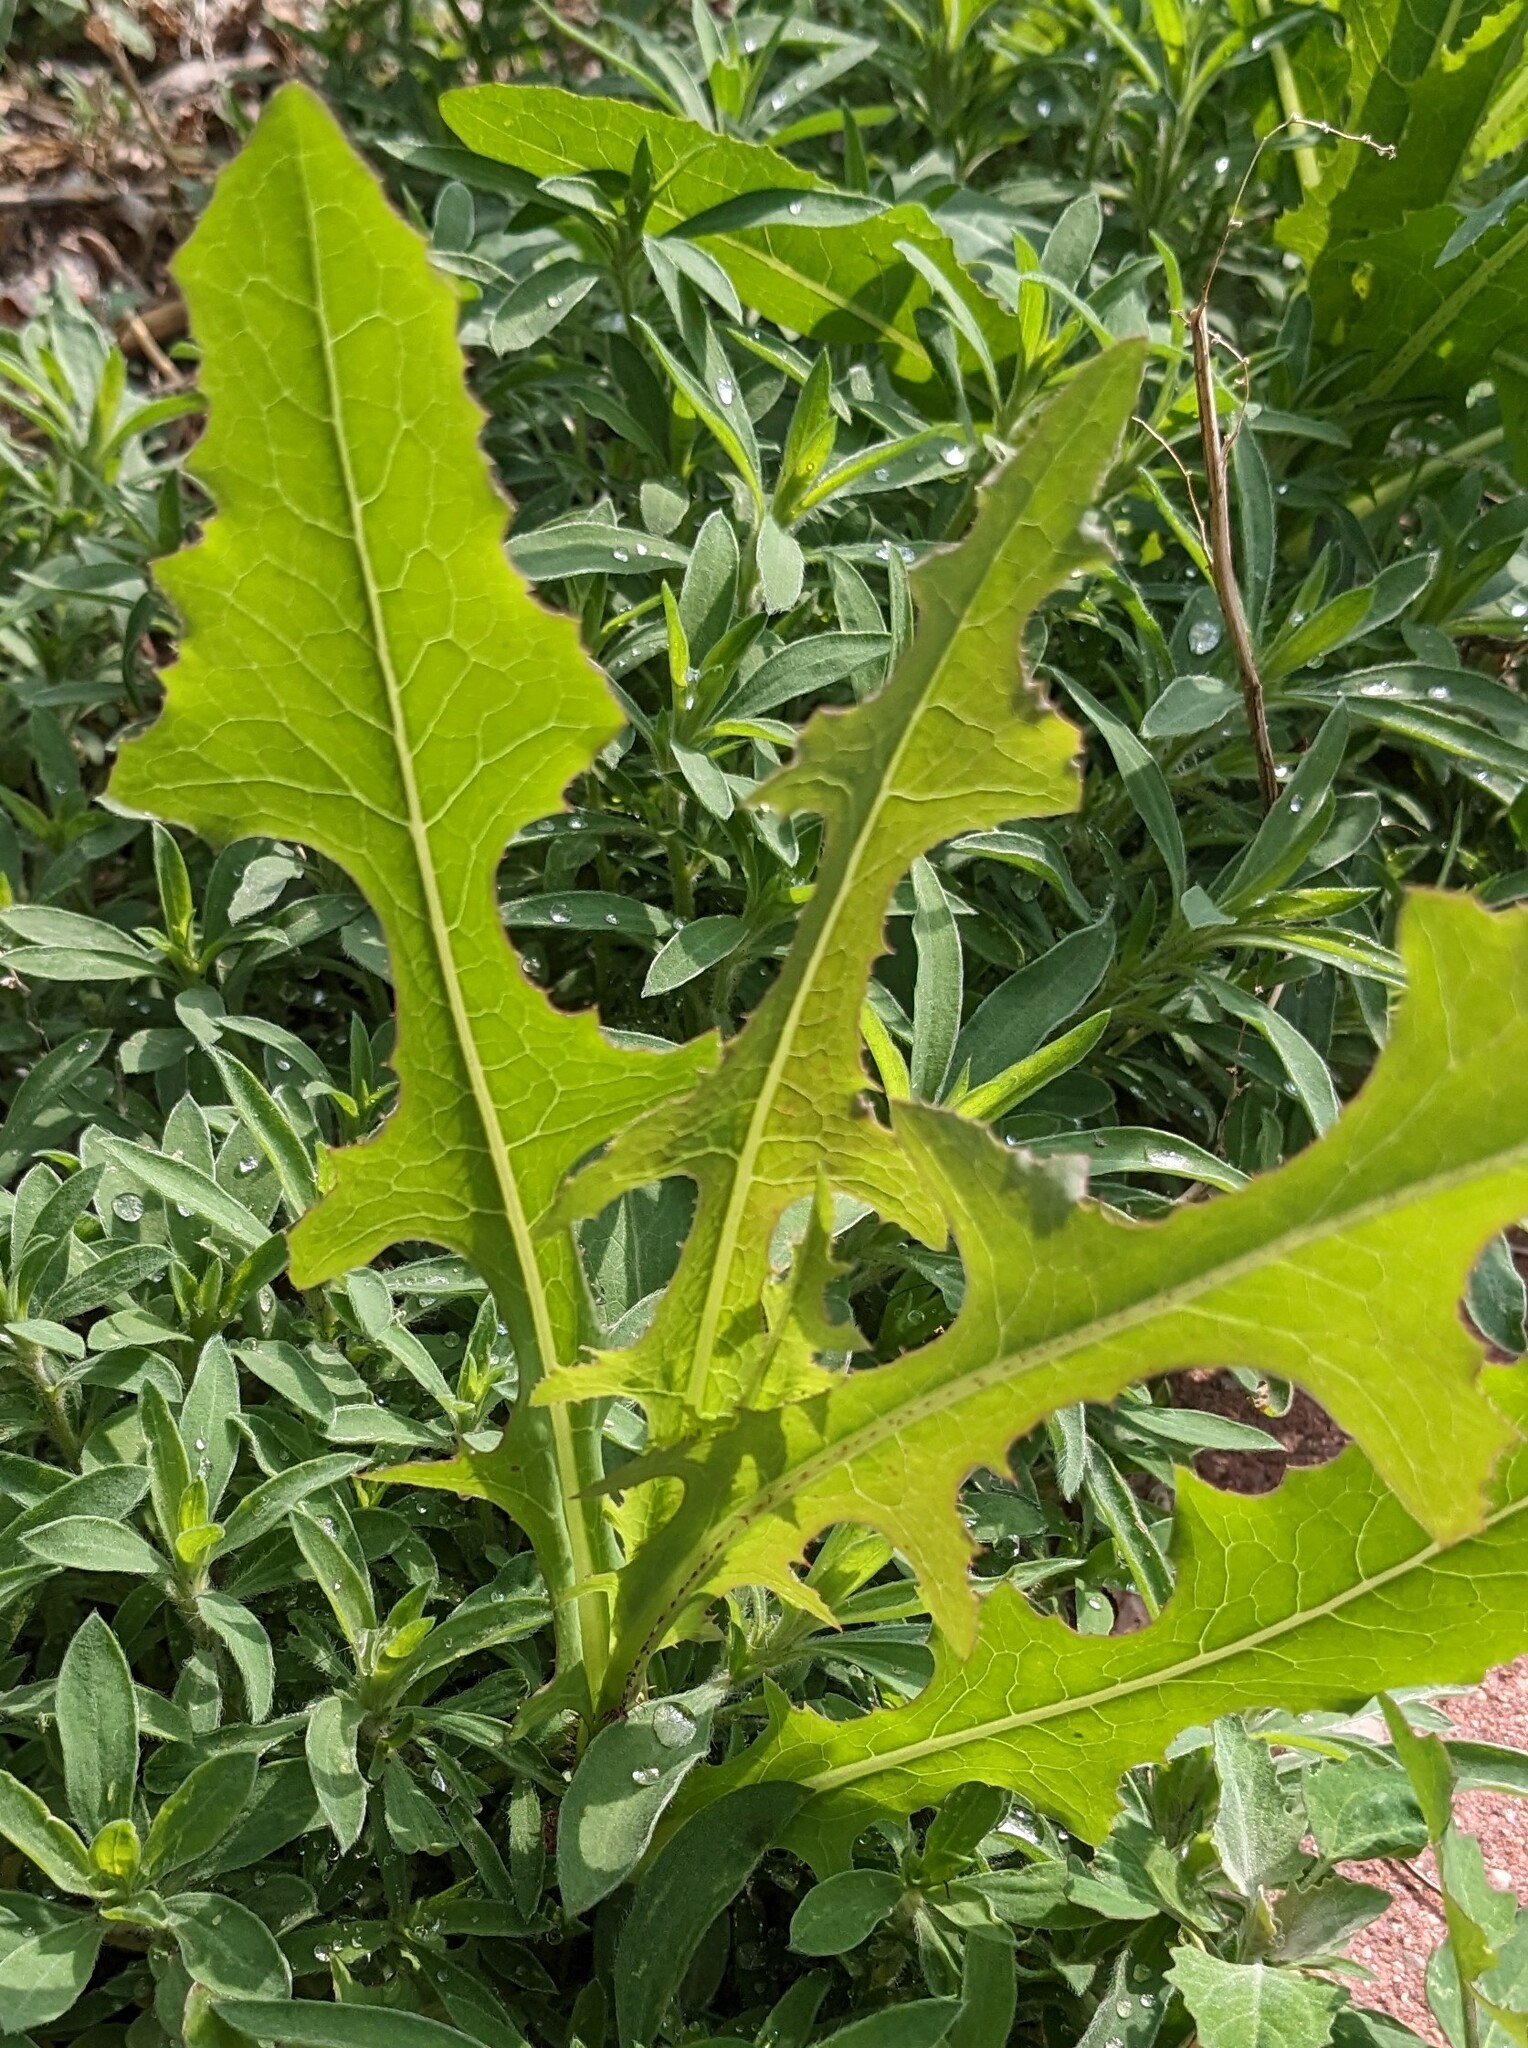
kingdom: Plantae
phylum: Tracheophyta
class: Magnoliopsida
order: Asterales
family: Asteraceae
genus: Lactuca
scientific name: Lactuca serriola
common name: Prickly lettuce
